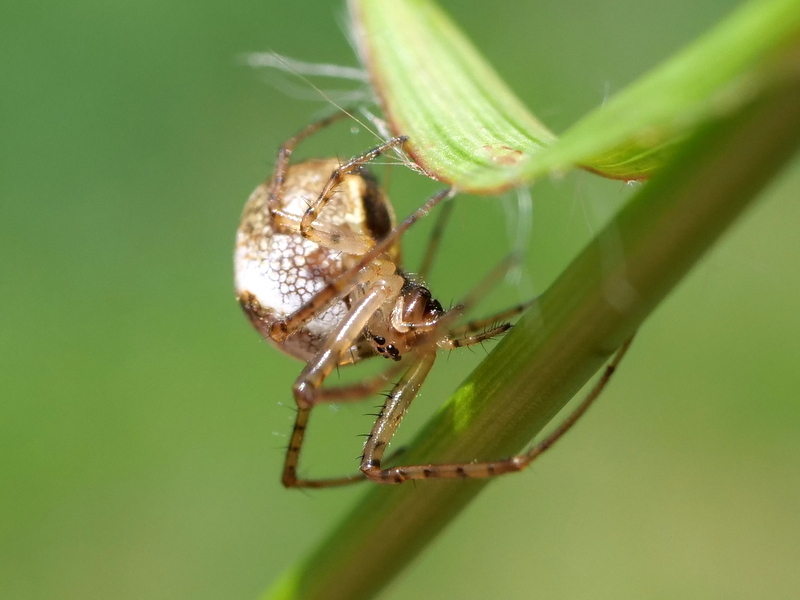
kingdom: Animalia
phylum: Arthropoda
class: Arachnida
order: Araneae
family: Tetragnathidae
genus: Metellina
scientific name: Metellina
